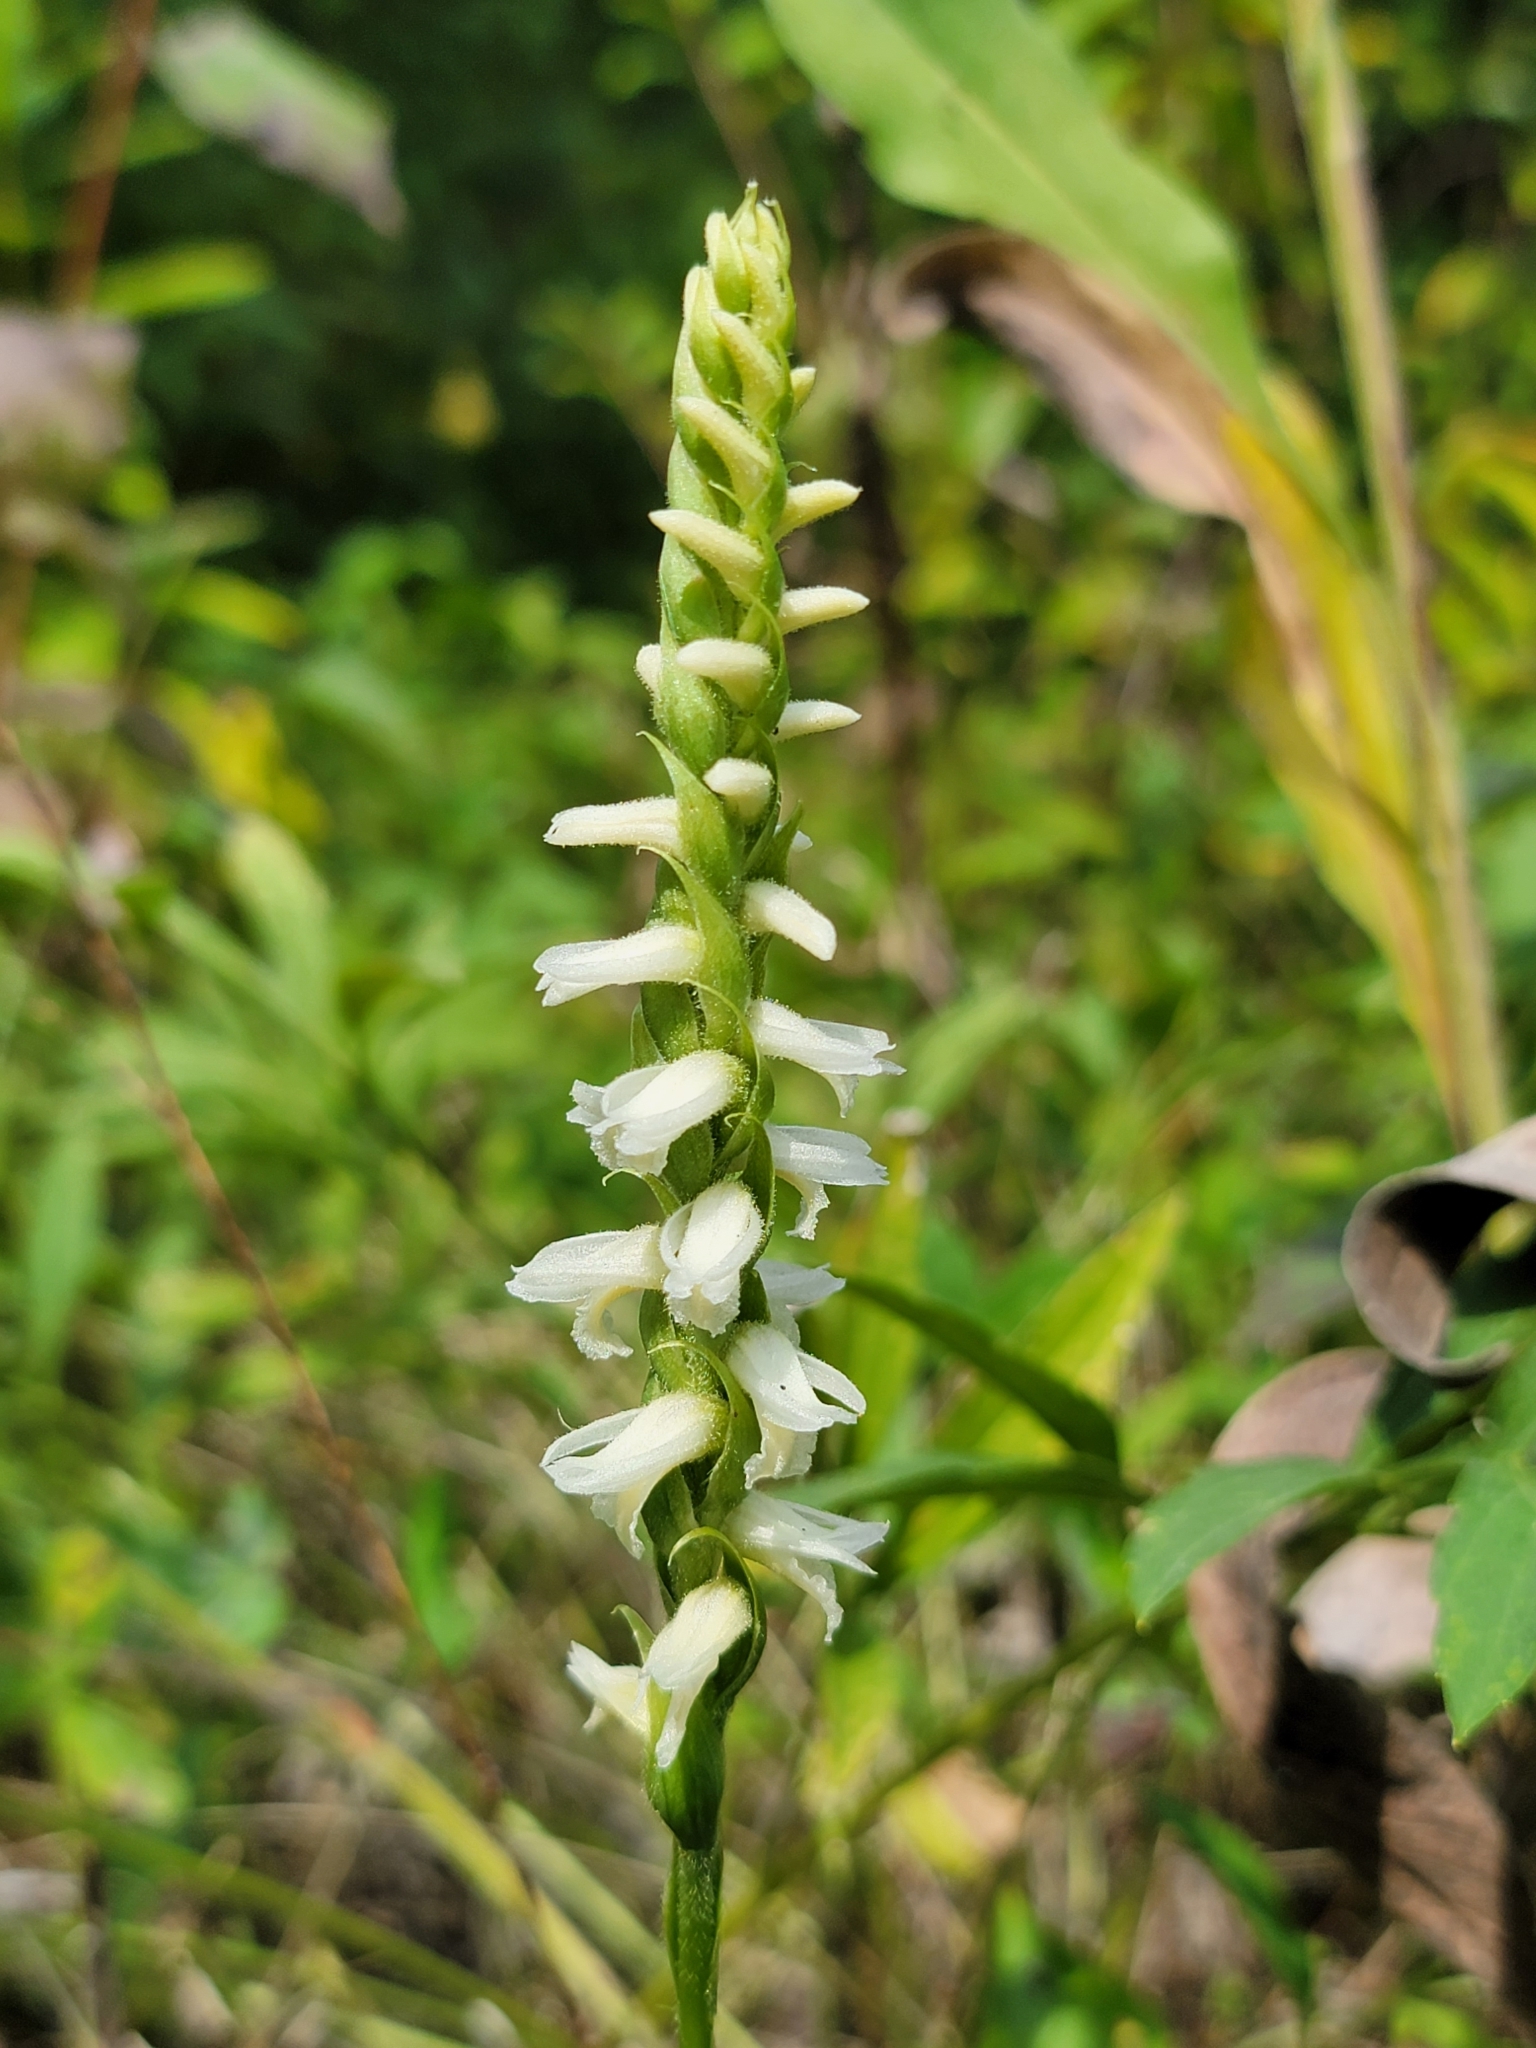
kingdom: Plantae
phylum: Tracheophyta
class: Liliopsida
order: Asparagales
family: Orchidaceae
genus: Spiranthes
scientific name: Spiranthes magnicamporum
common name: Great plains ladies'-tresses
